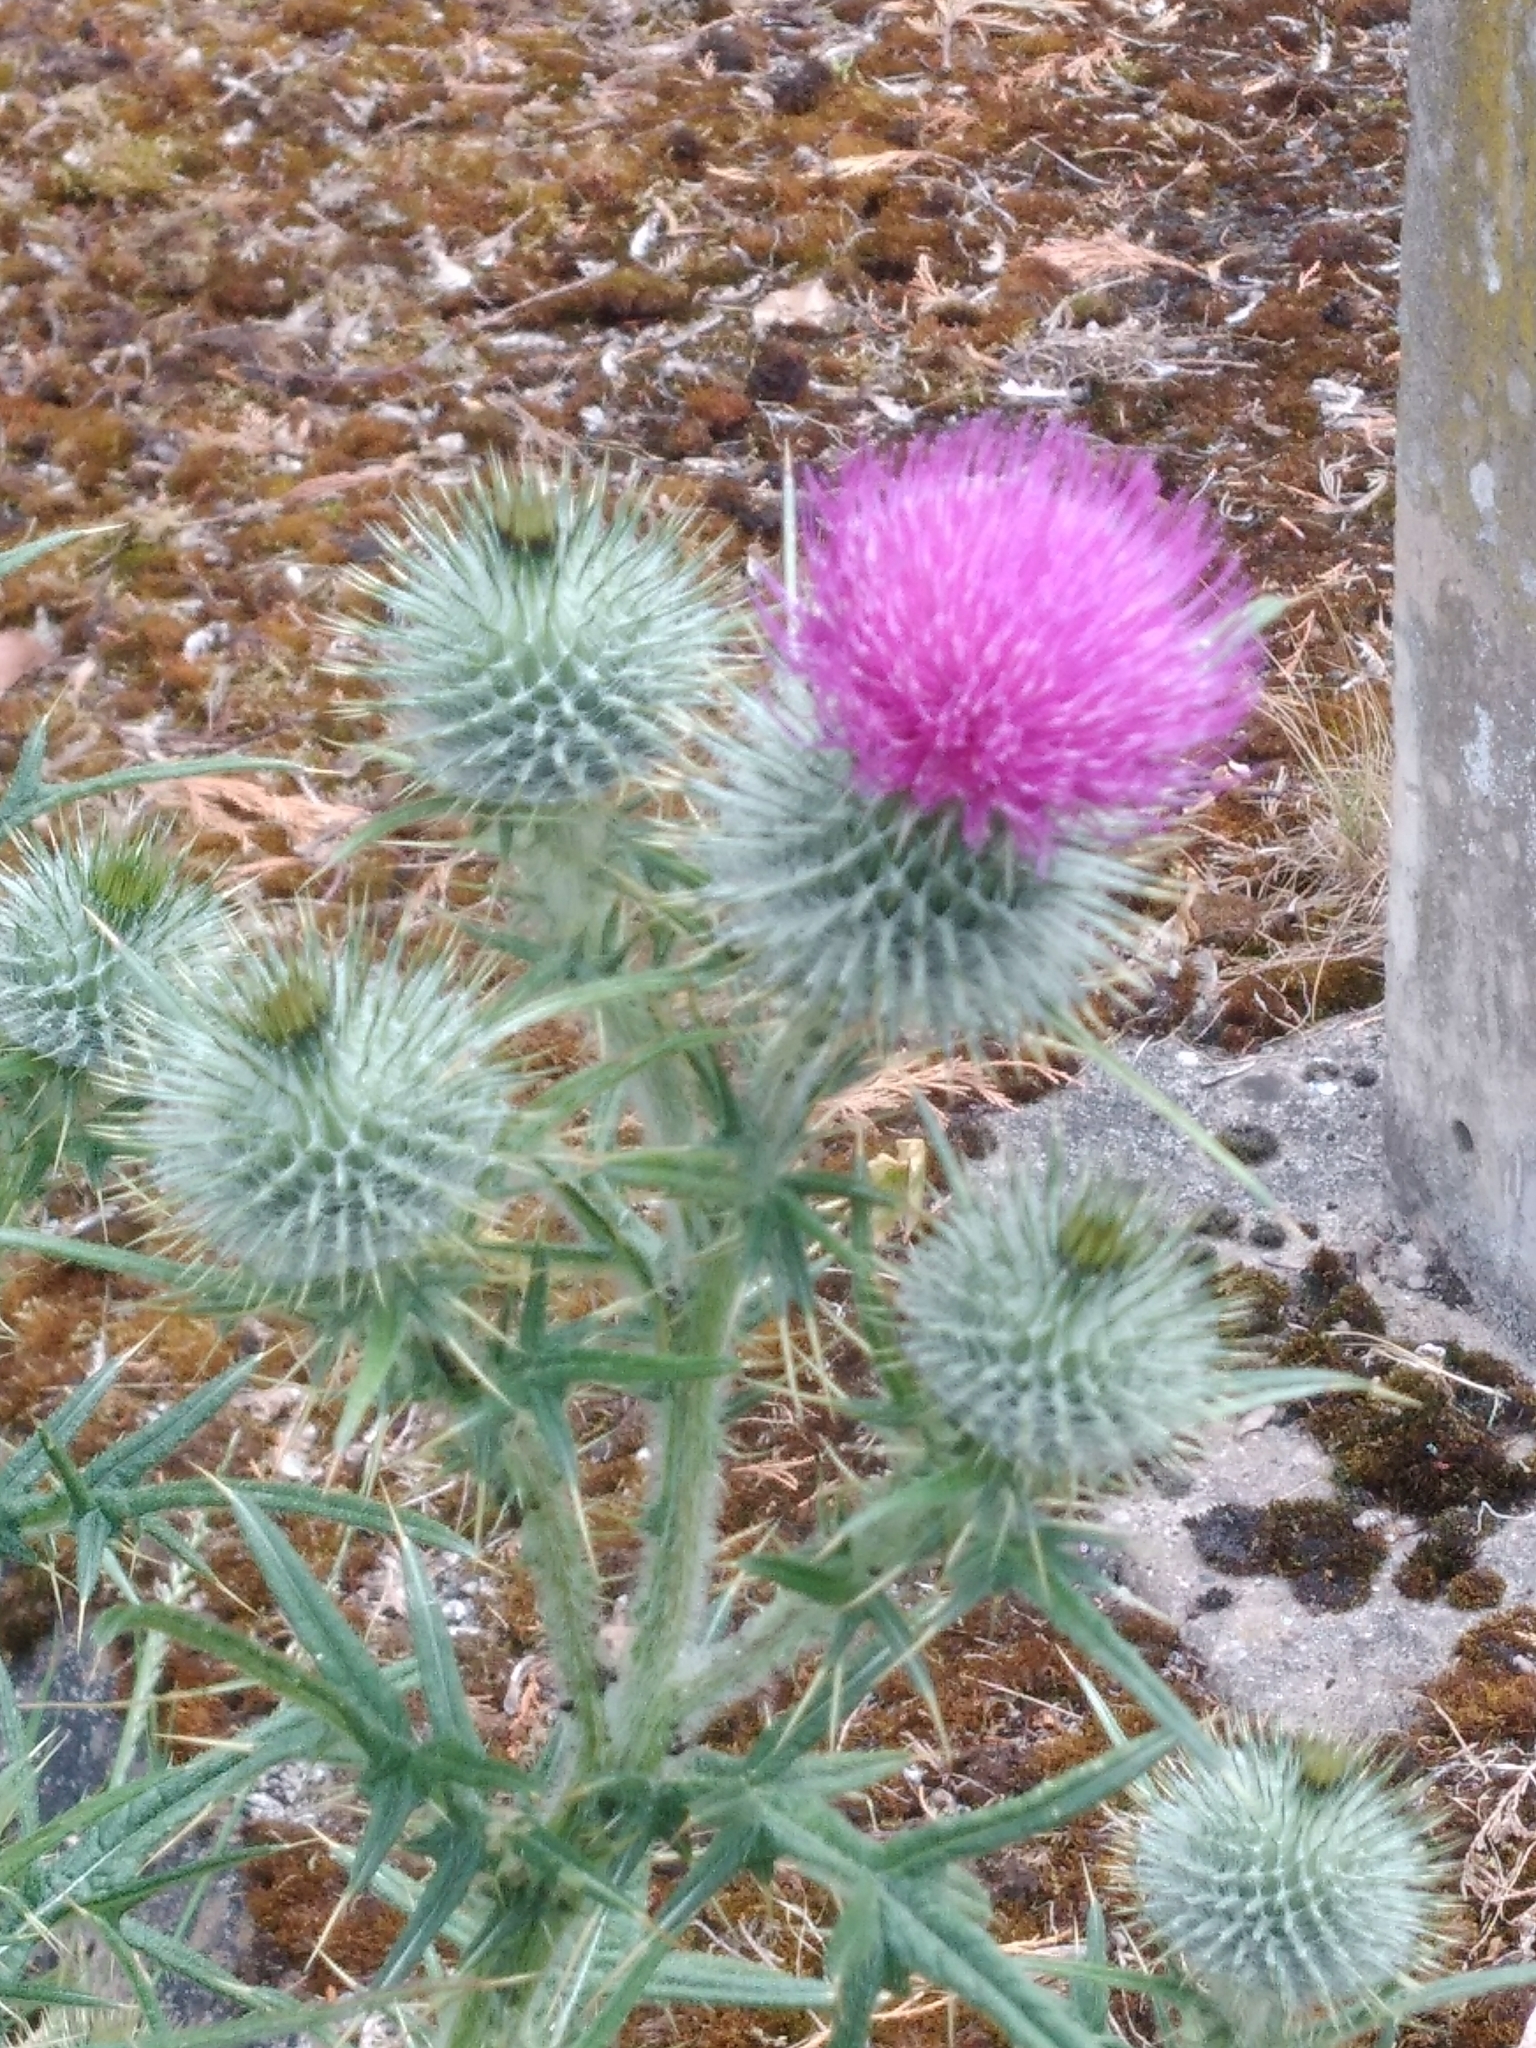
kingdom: Plantae
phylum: Tracheophyta
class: Magnoliopsida
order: Asterales
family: Asteraceae
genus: Cirsium
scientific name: Cirsium vulgare
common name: Bull thistle
